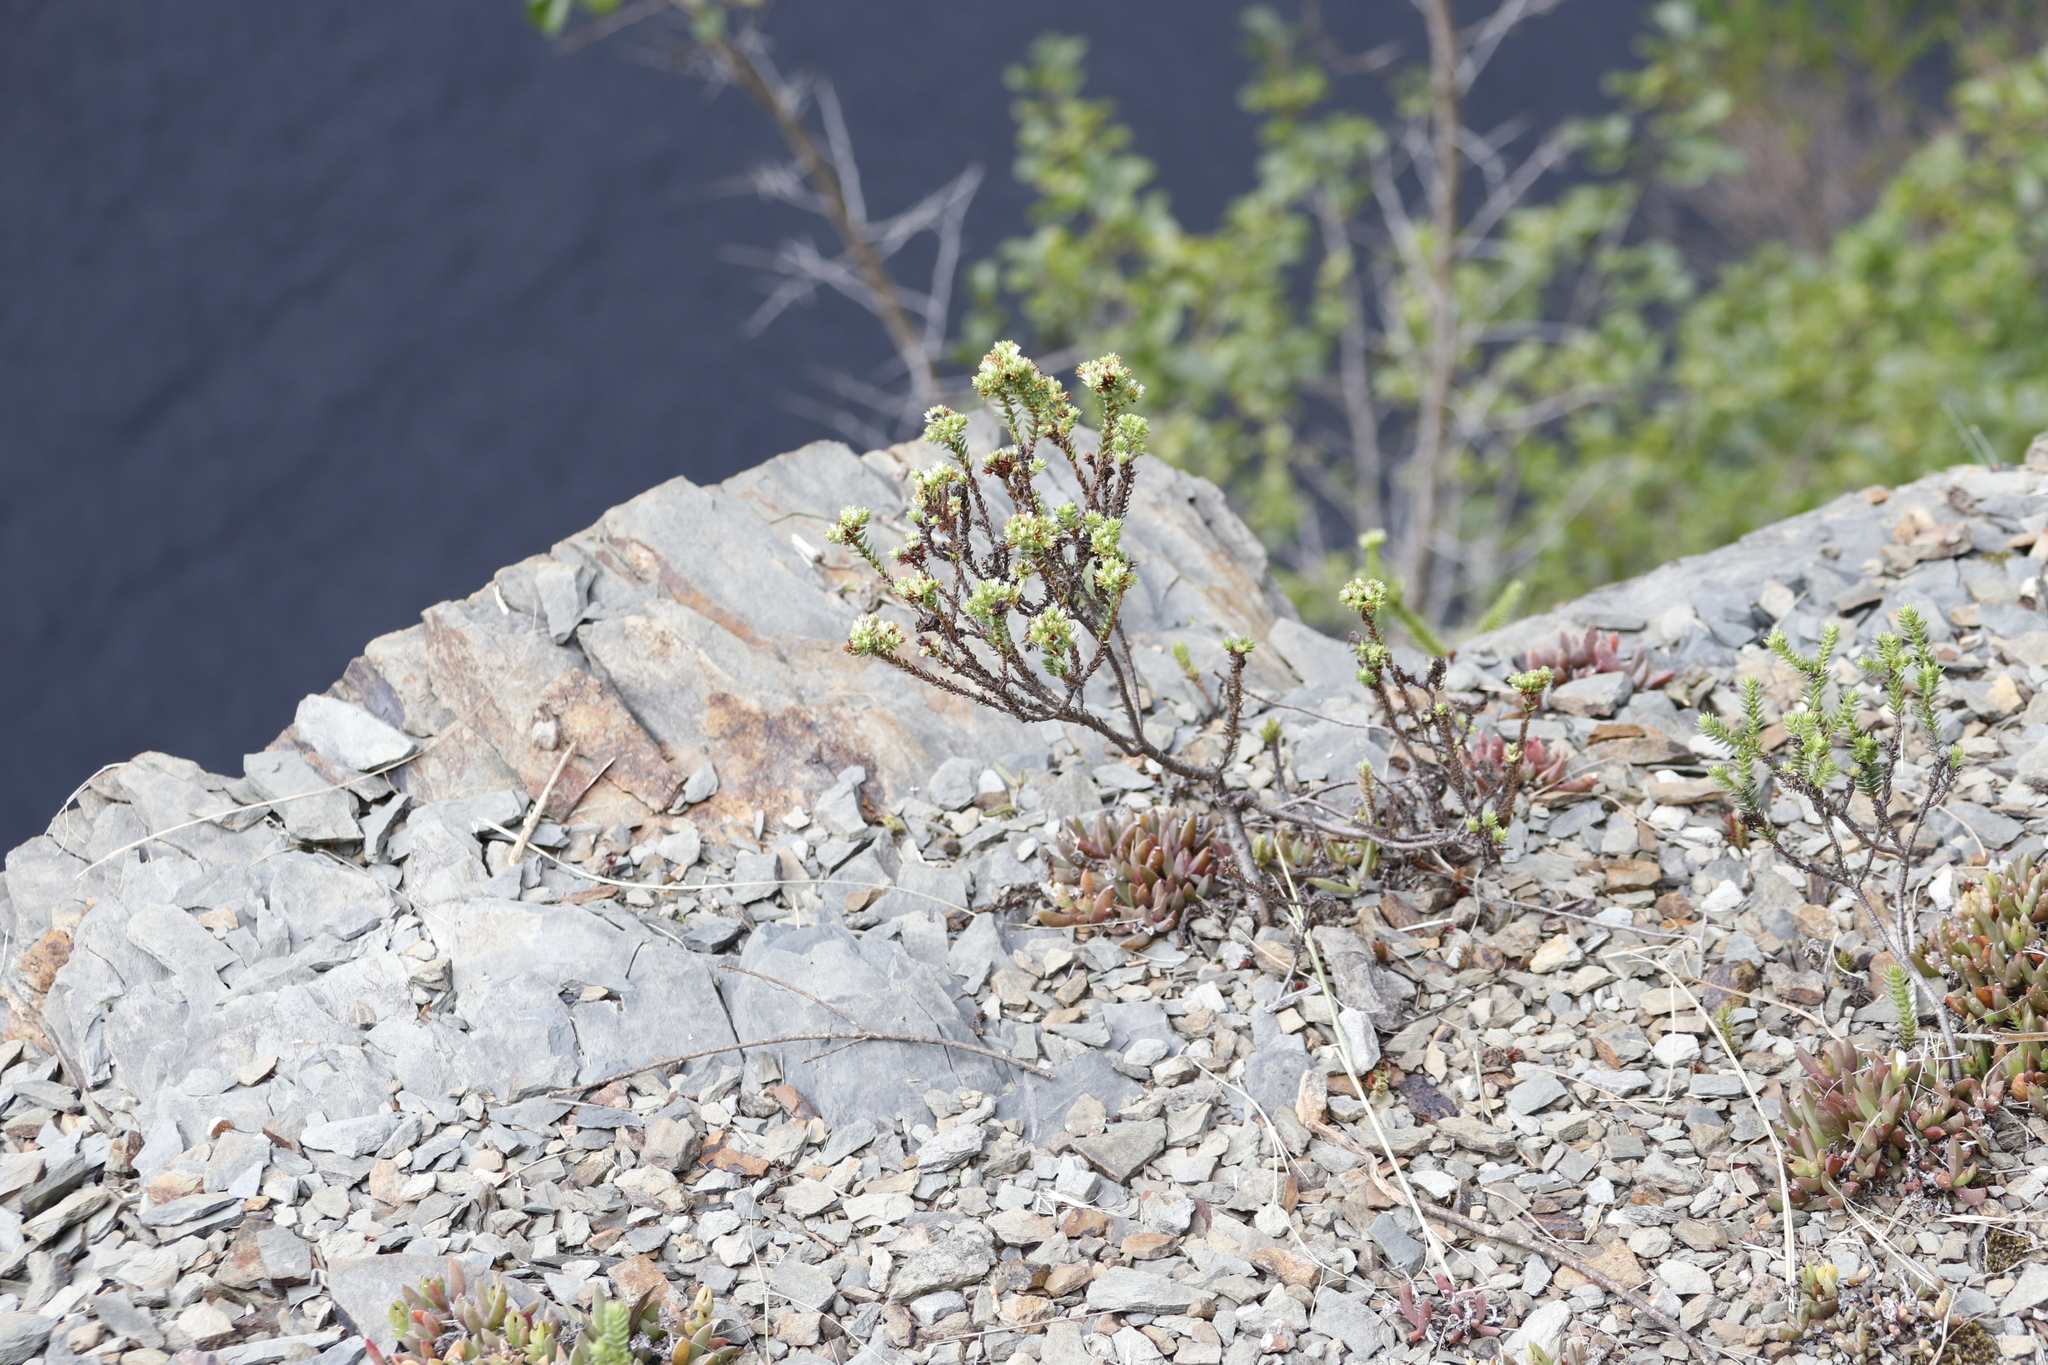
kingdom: Plantae
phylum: Tracheophyta
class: Magnoliopsida
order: Saxifragales
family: Crassulaceae
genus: Crassula
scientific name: Crassula ericoides
